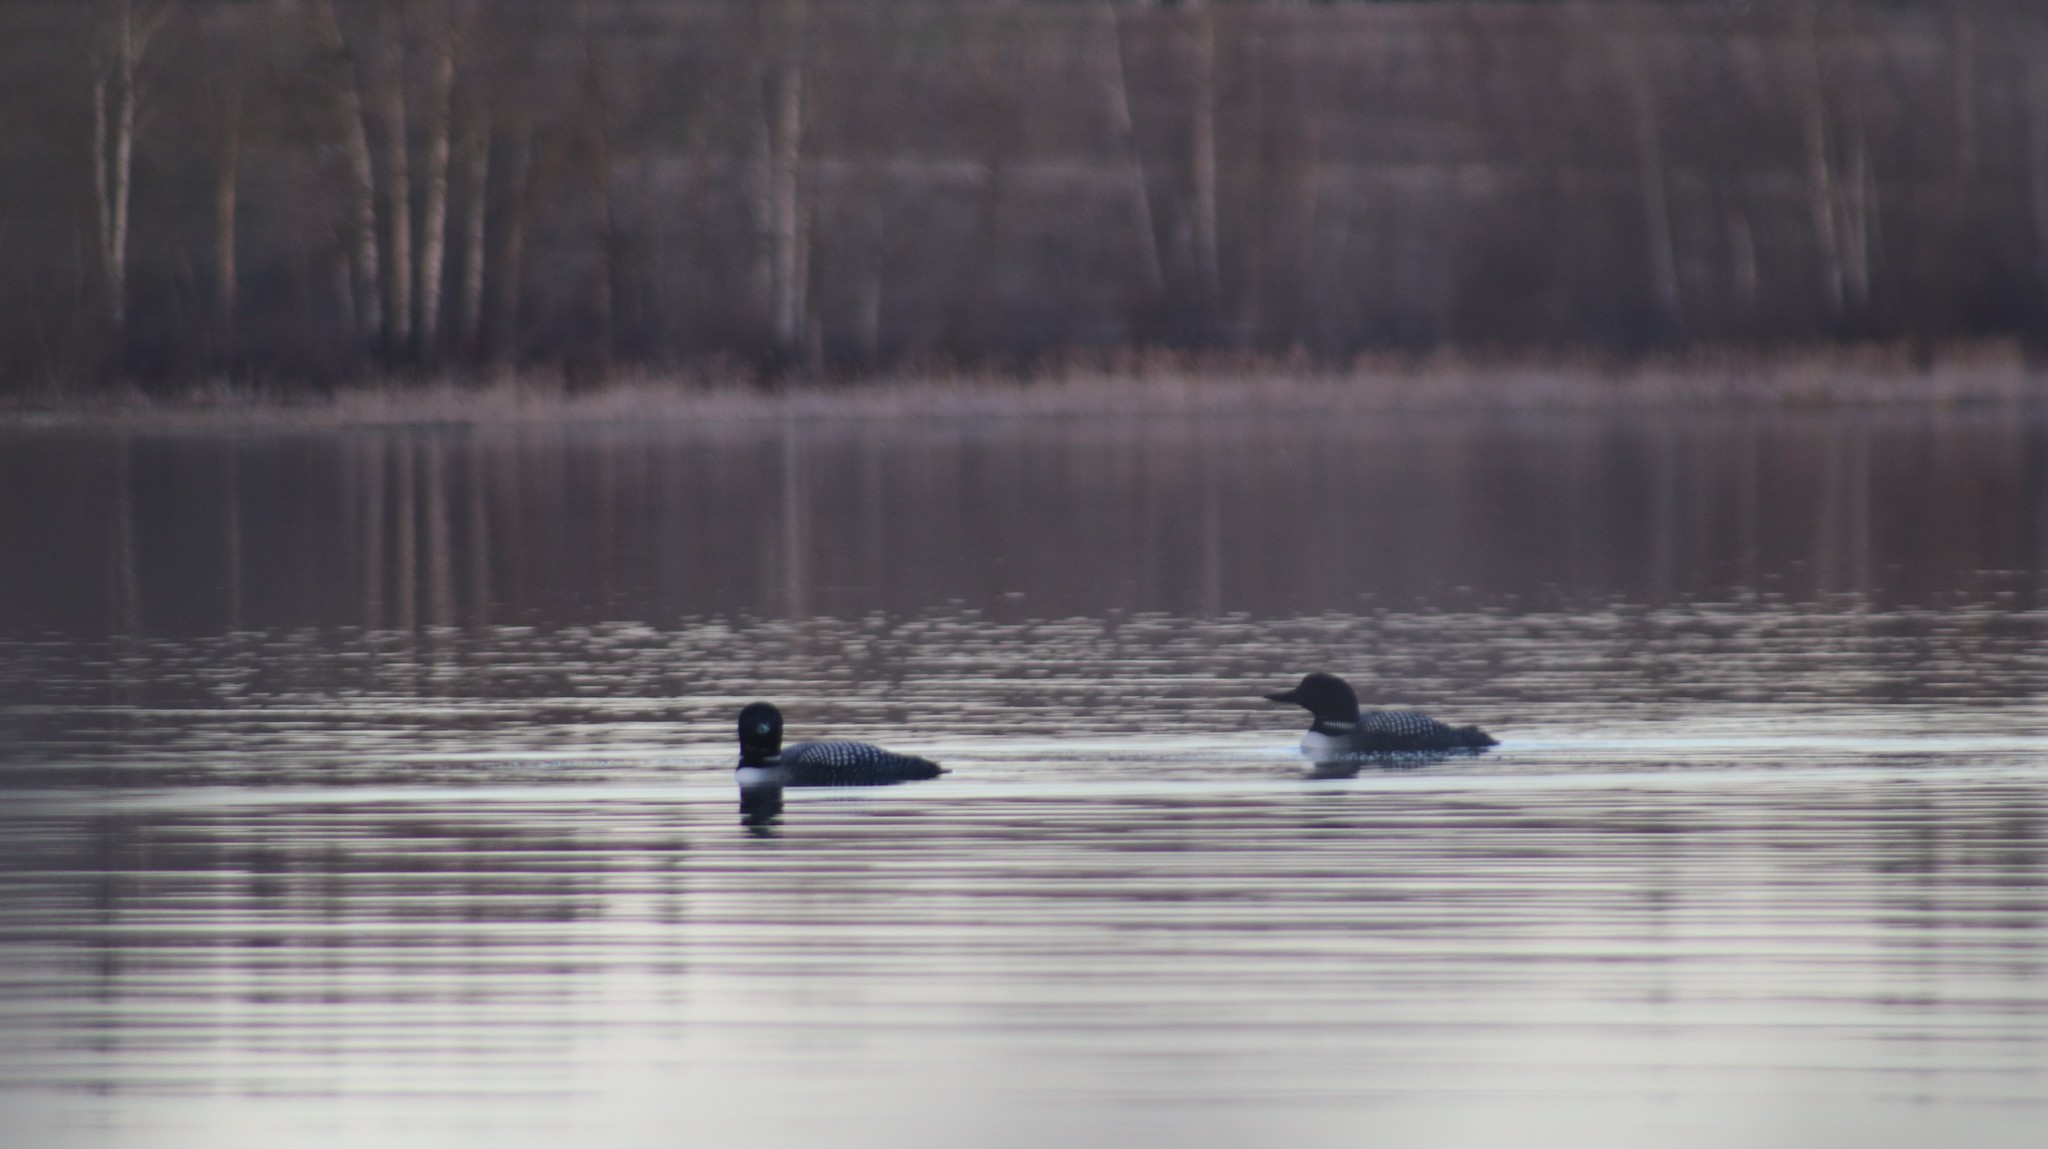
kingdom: Animalia
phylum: Chordata
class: Aves
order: Gaviiformes
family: Gaviidae
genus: Gavia
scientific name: Gavia immer
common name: Common loon
